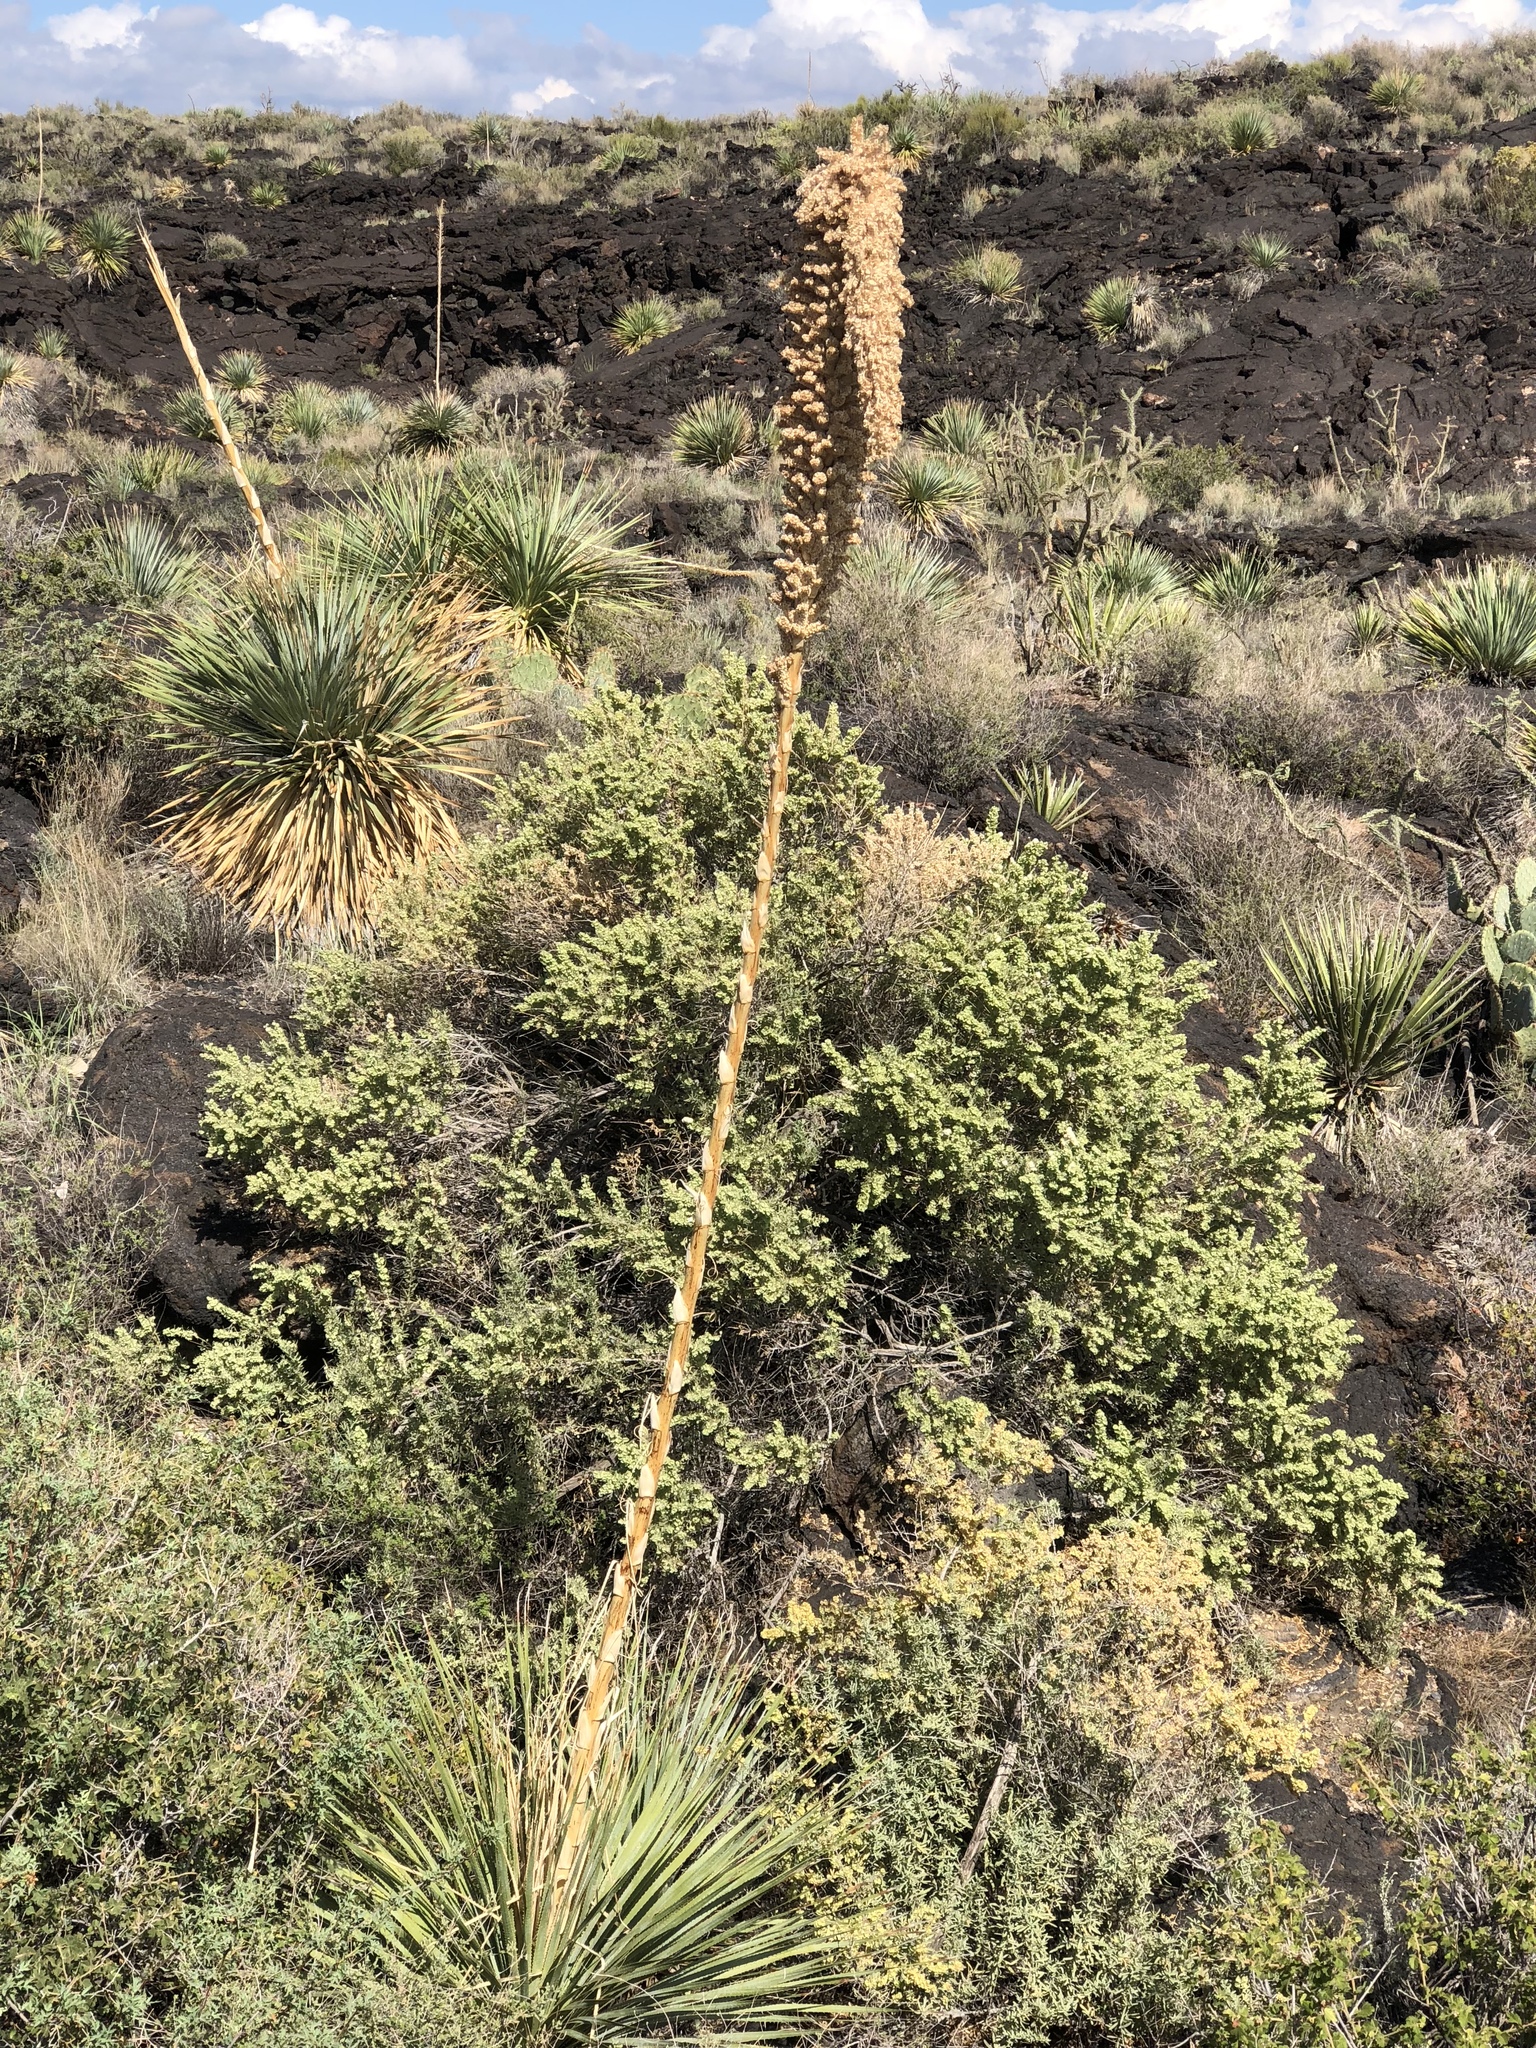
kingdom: Plantae
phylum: Tracheophyta
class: Liliopsida
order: Asparagales
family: Asparagaceae
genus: Dasylirion
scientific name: Dasylirion wheeleri
